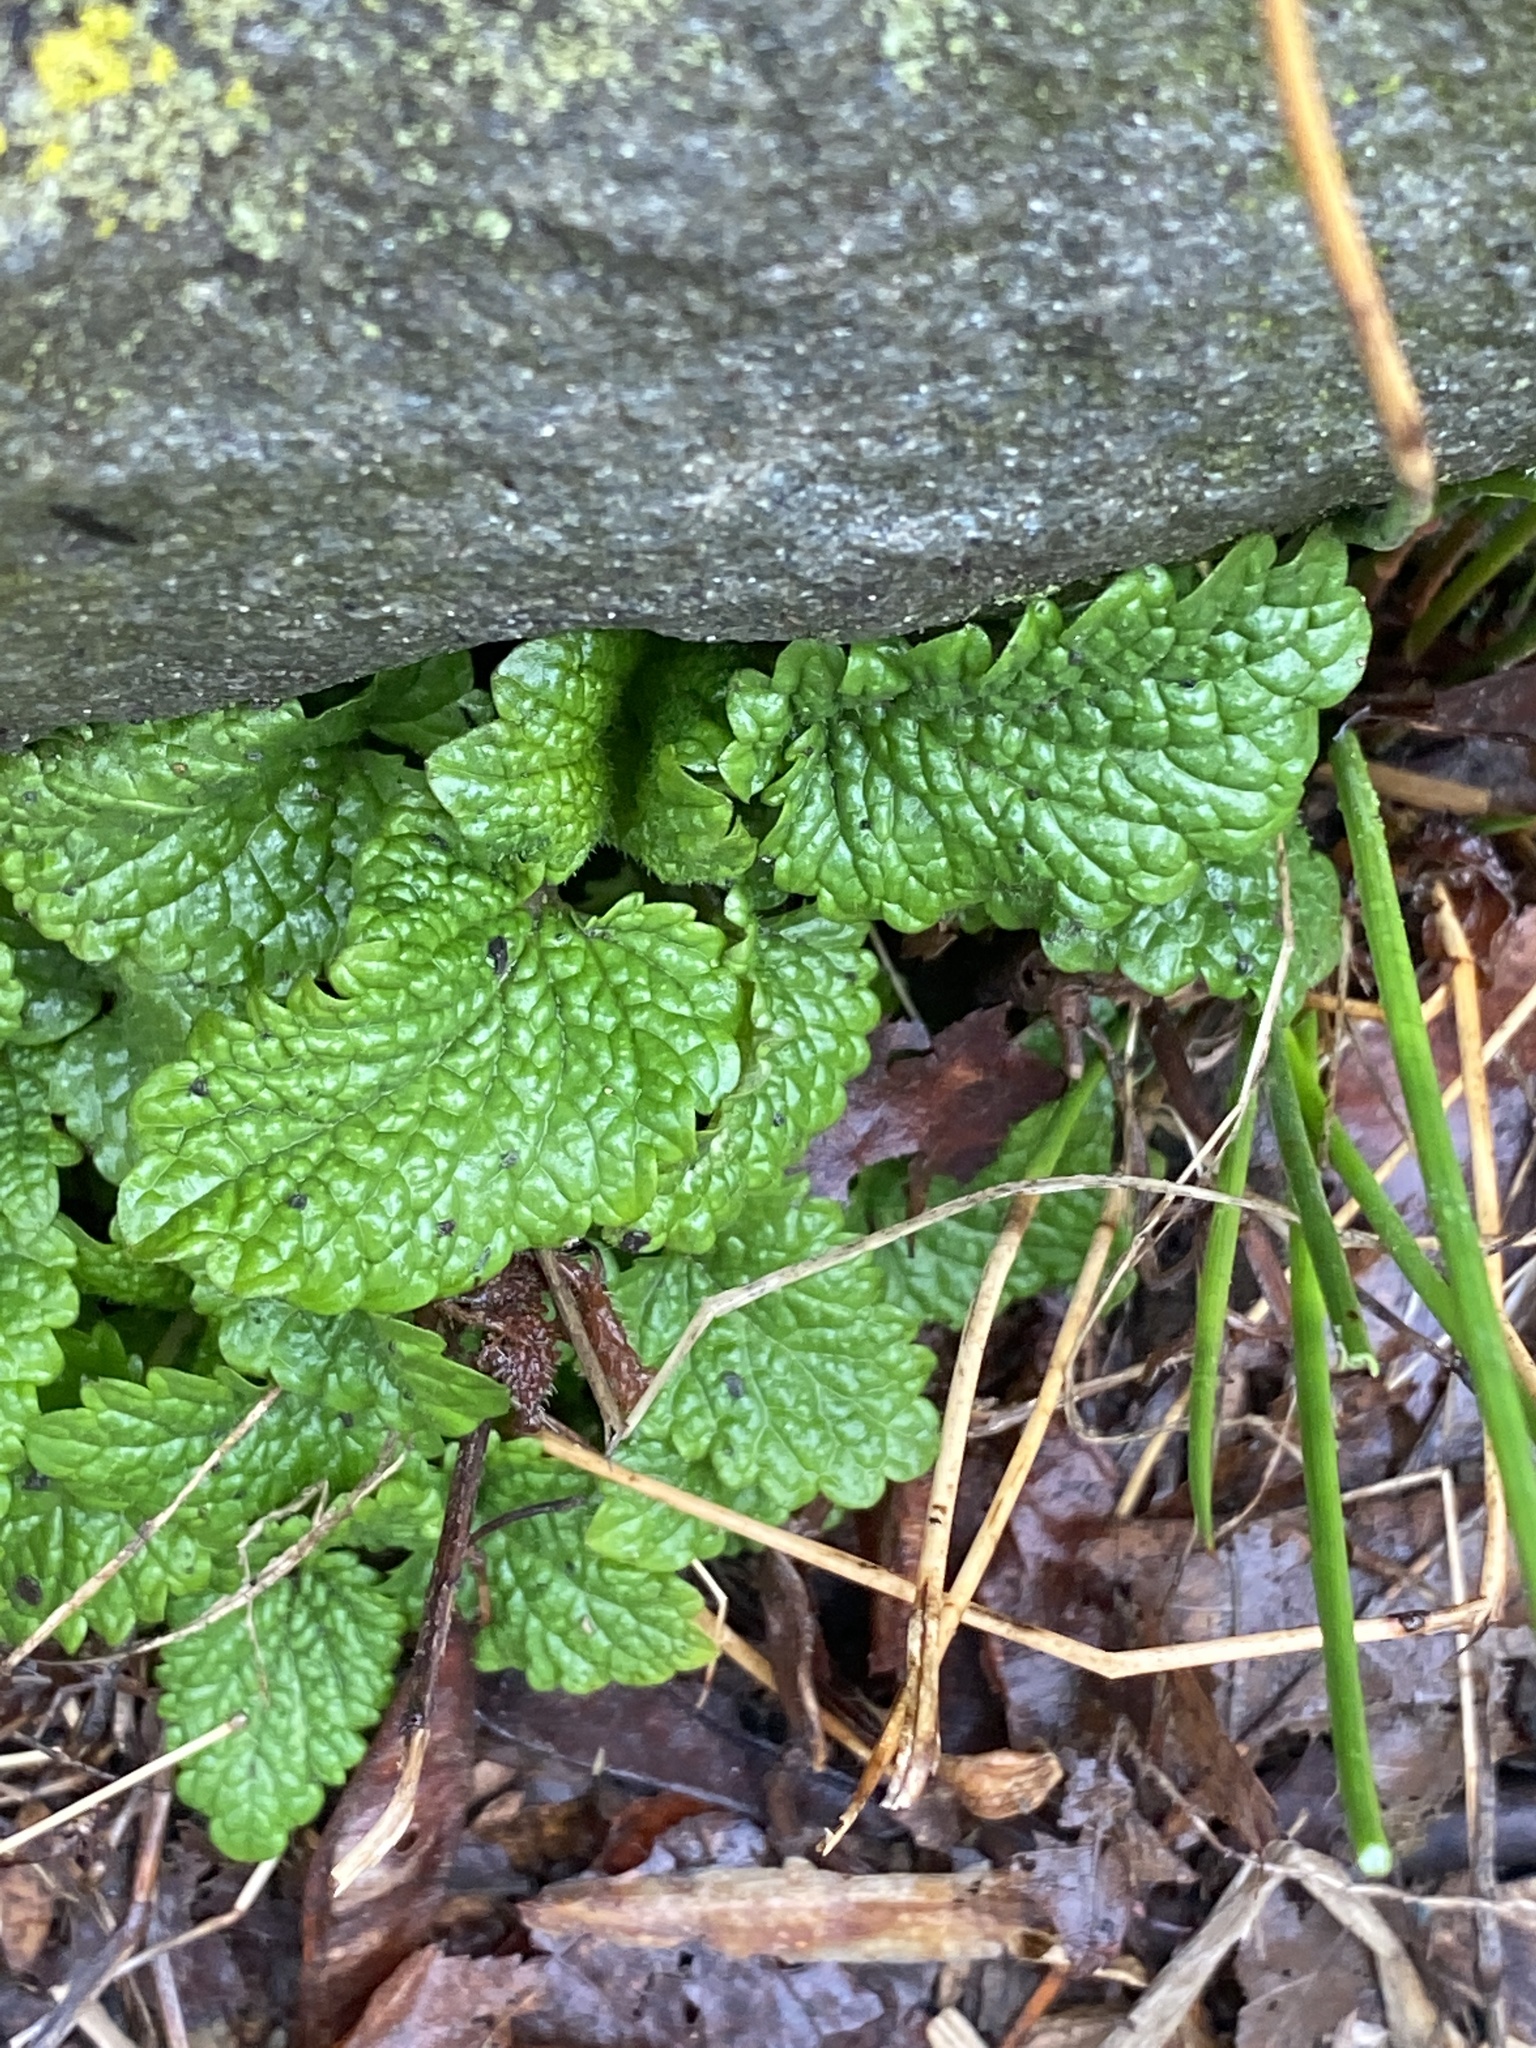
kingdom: Plantae
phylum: Tracheophyta
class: Magnoliopsida
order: Lamiales
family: Lamiaceae
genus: Melissa
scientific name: Melissa officinalis
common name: Balm
